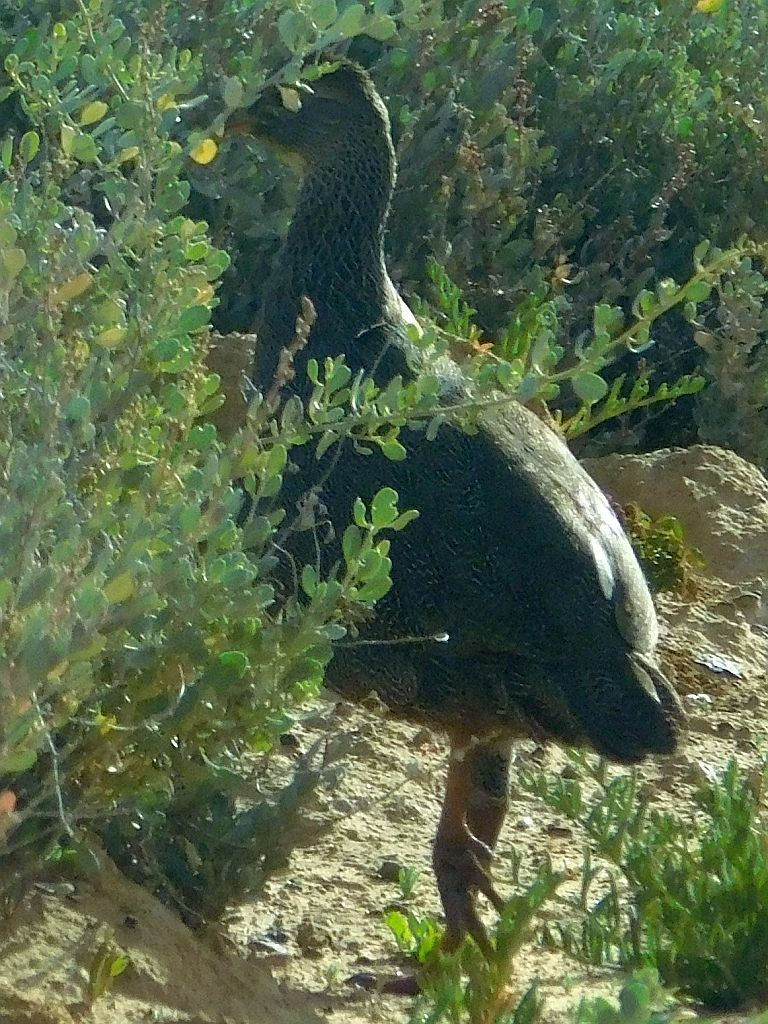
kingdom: Animalia
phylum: Chordata
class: Aves
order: Galliformes
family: Phasianidae
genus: Pternistis
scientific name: Pternistis capensis
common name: Cape spurfowl
